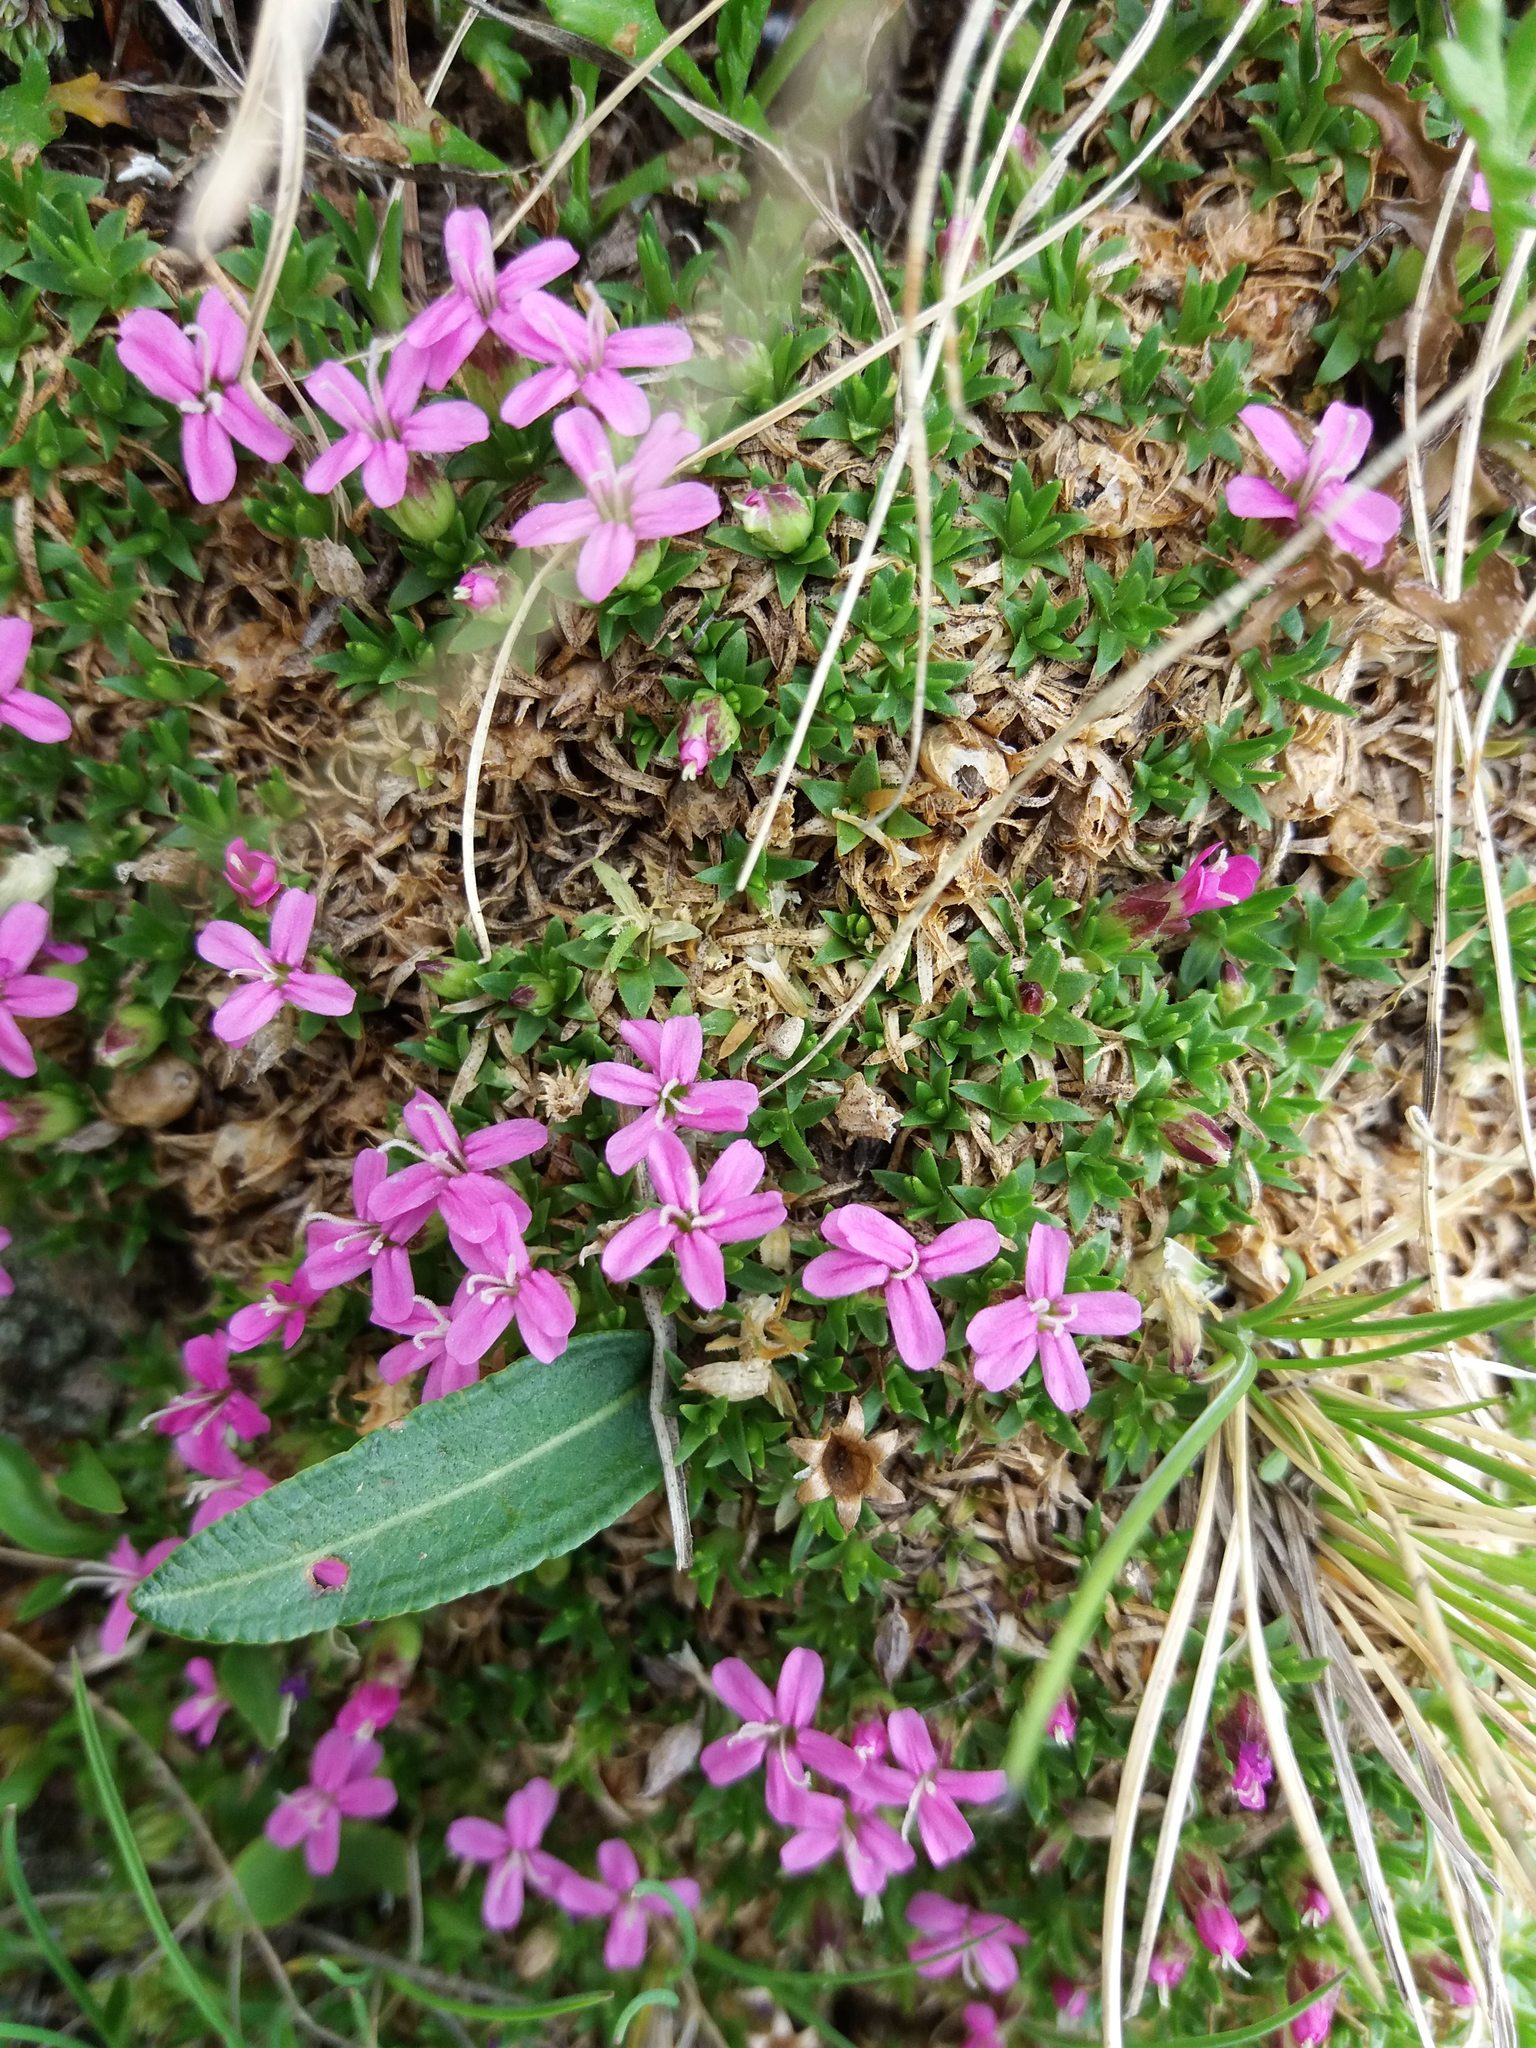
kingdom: Plantae
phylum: Tracheophyta
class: Magnoliopsida
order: Caryophyllales
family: Caryophyllaceae
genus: Silene
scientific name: Silene acaulis
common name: Moss campion
